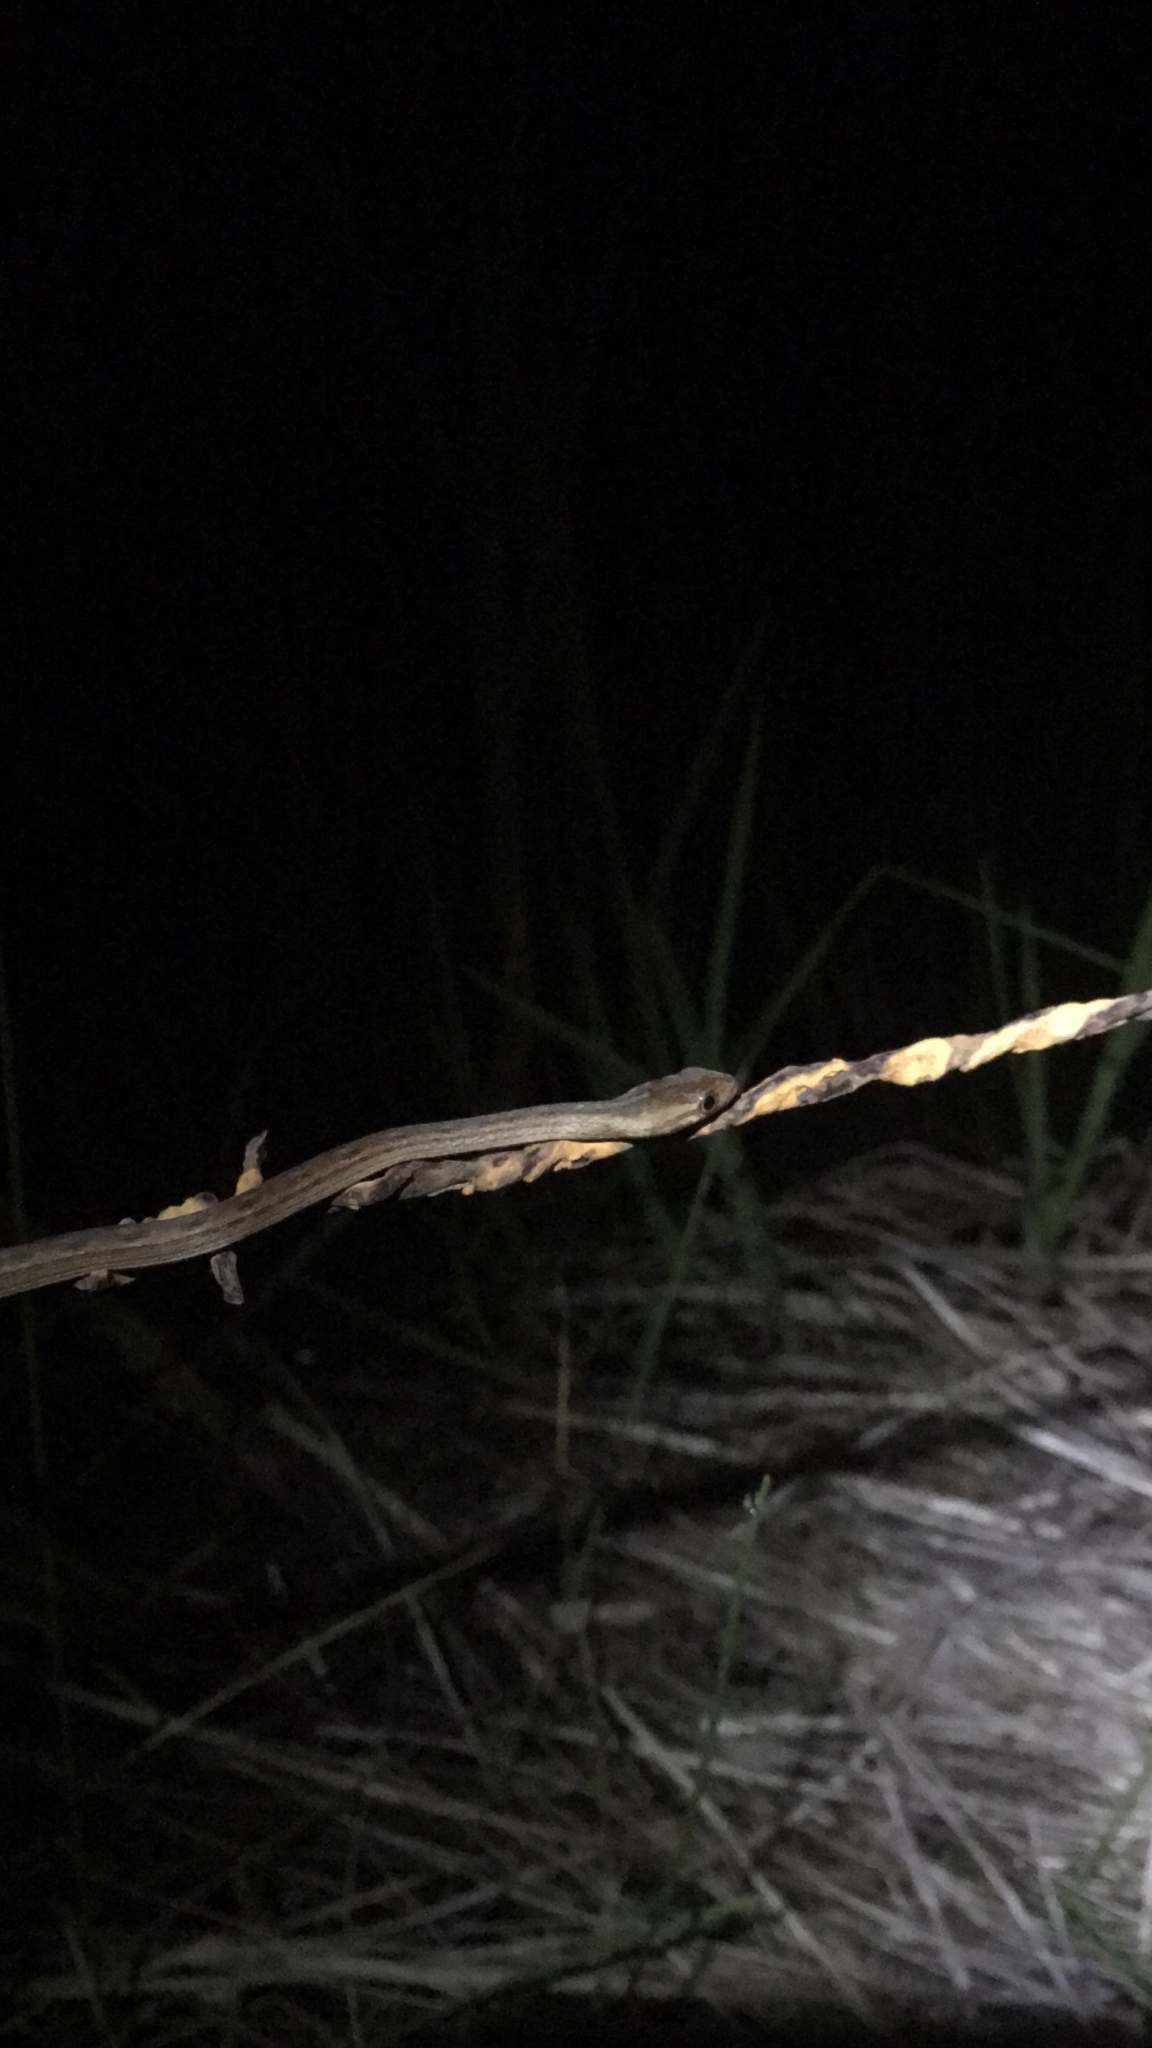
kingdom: Animalia
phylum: Chordata
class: Squamata
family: Colubridae
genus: Dryophylax
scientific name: Dryophylax
